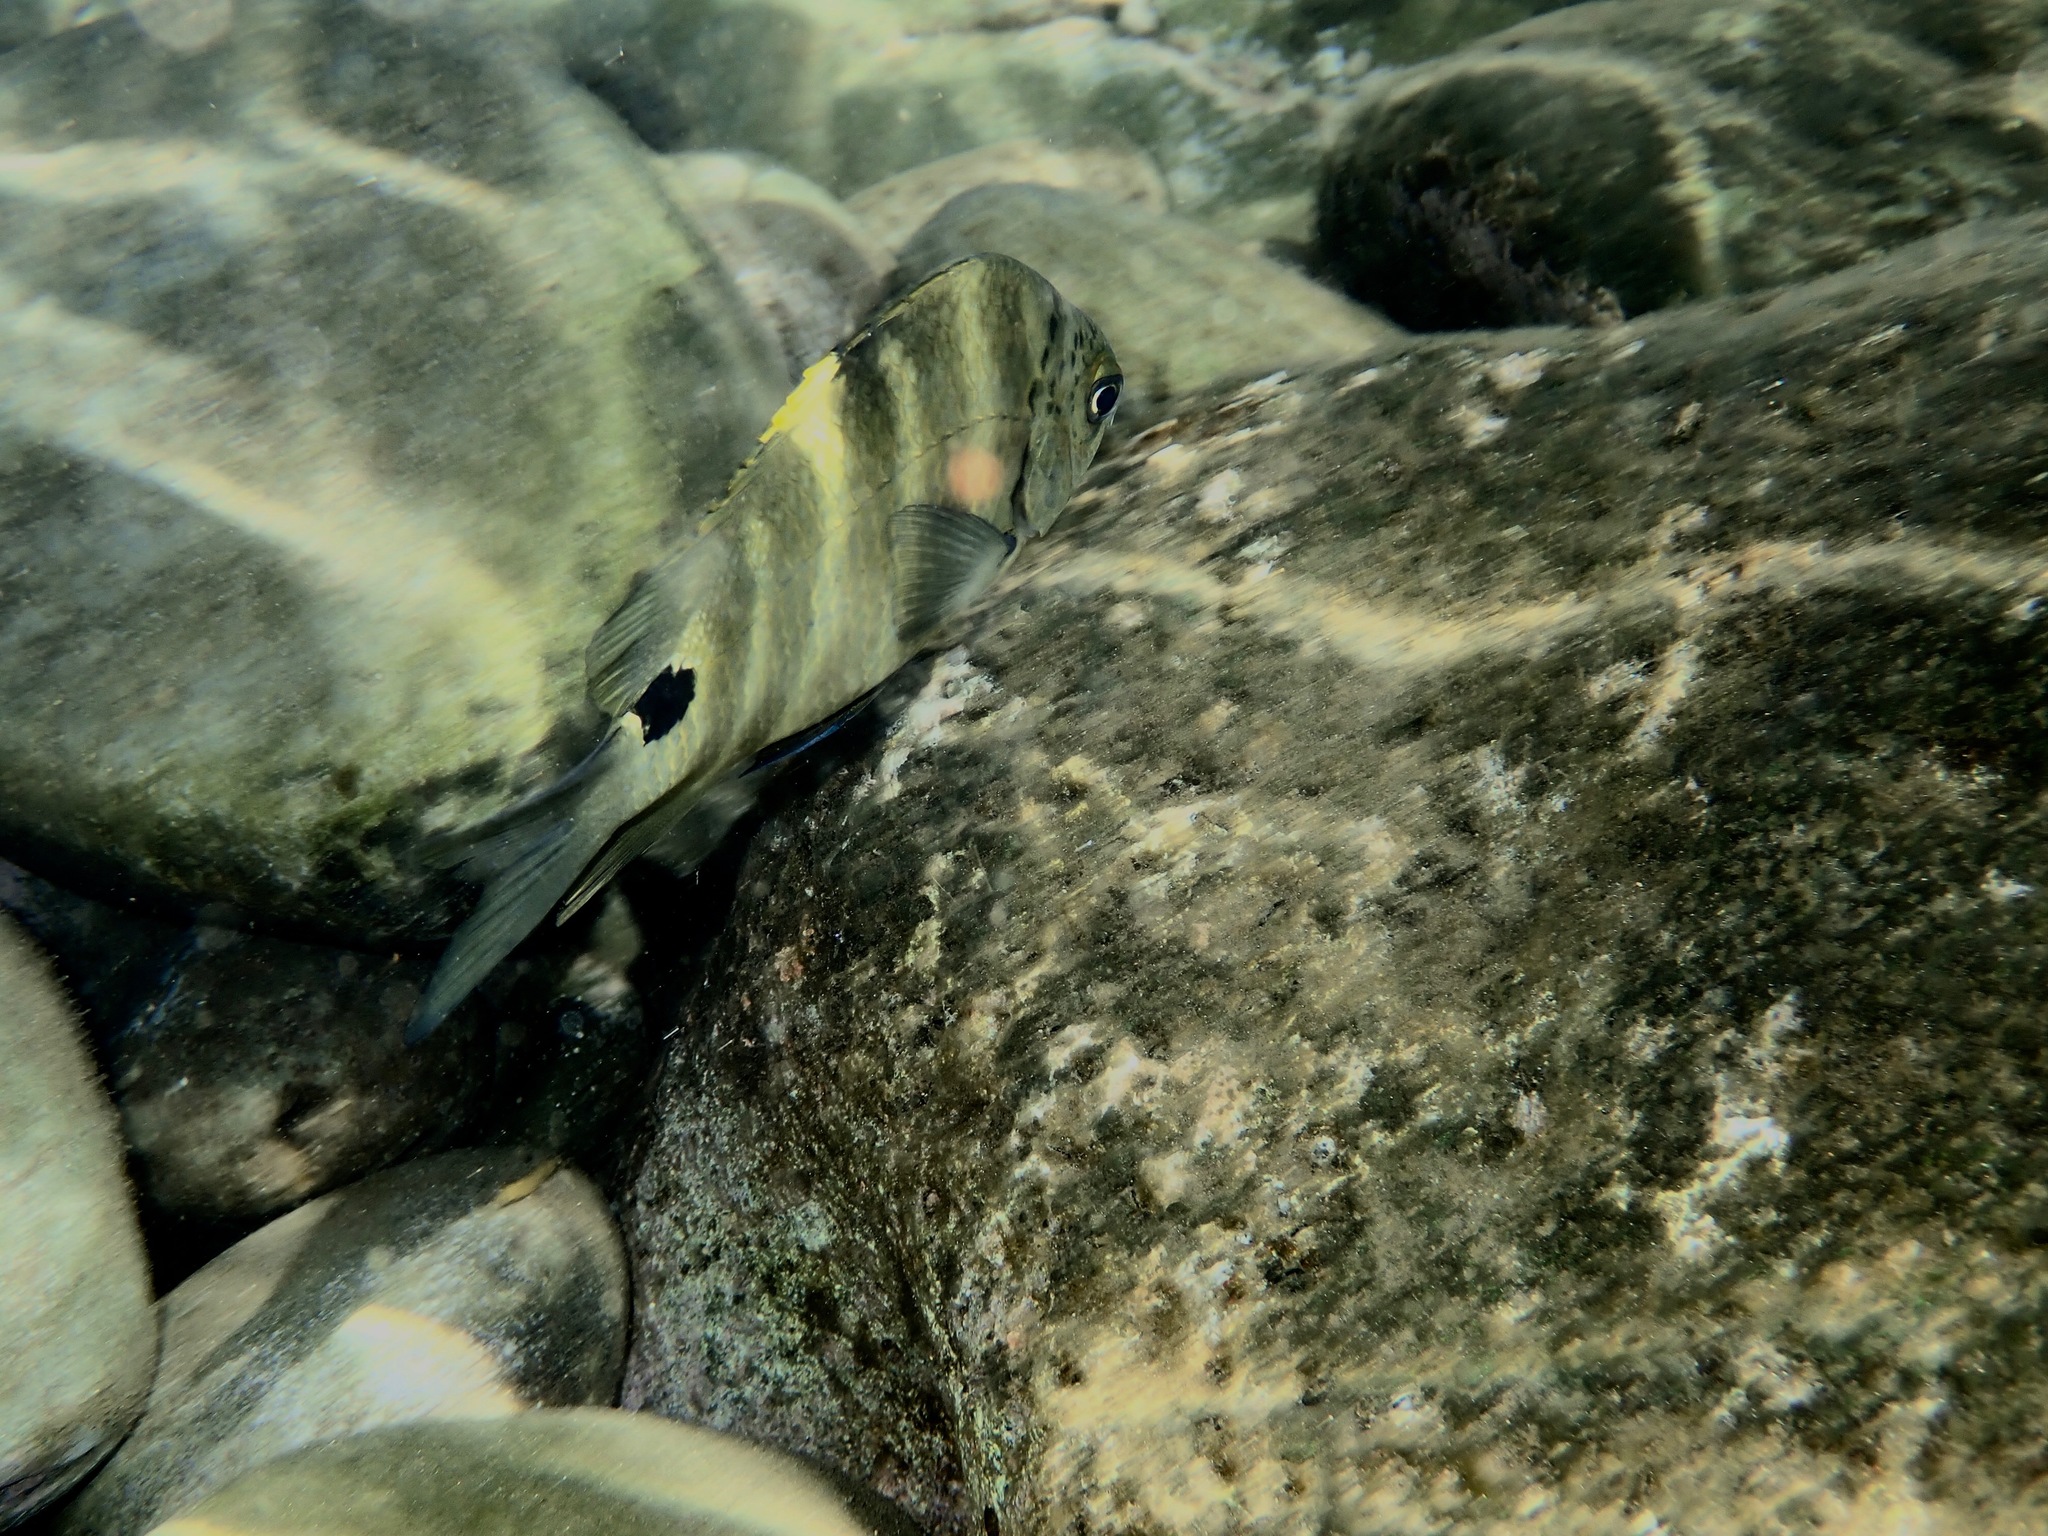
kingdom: Animalia
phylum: Chordata
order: Perciformes
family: Pomacentridae
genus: Abudefduf
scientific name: Abudefduf sordidus
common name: Blackspot sergeant
